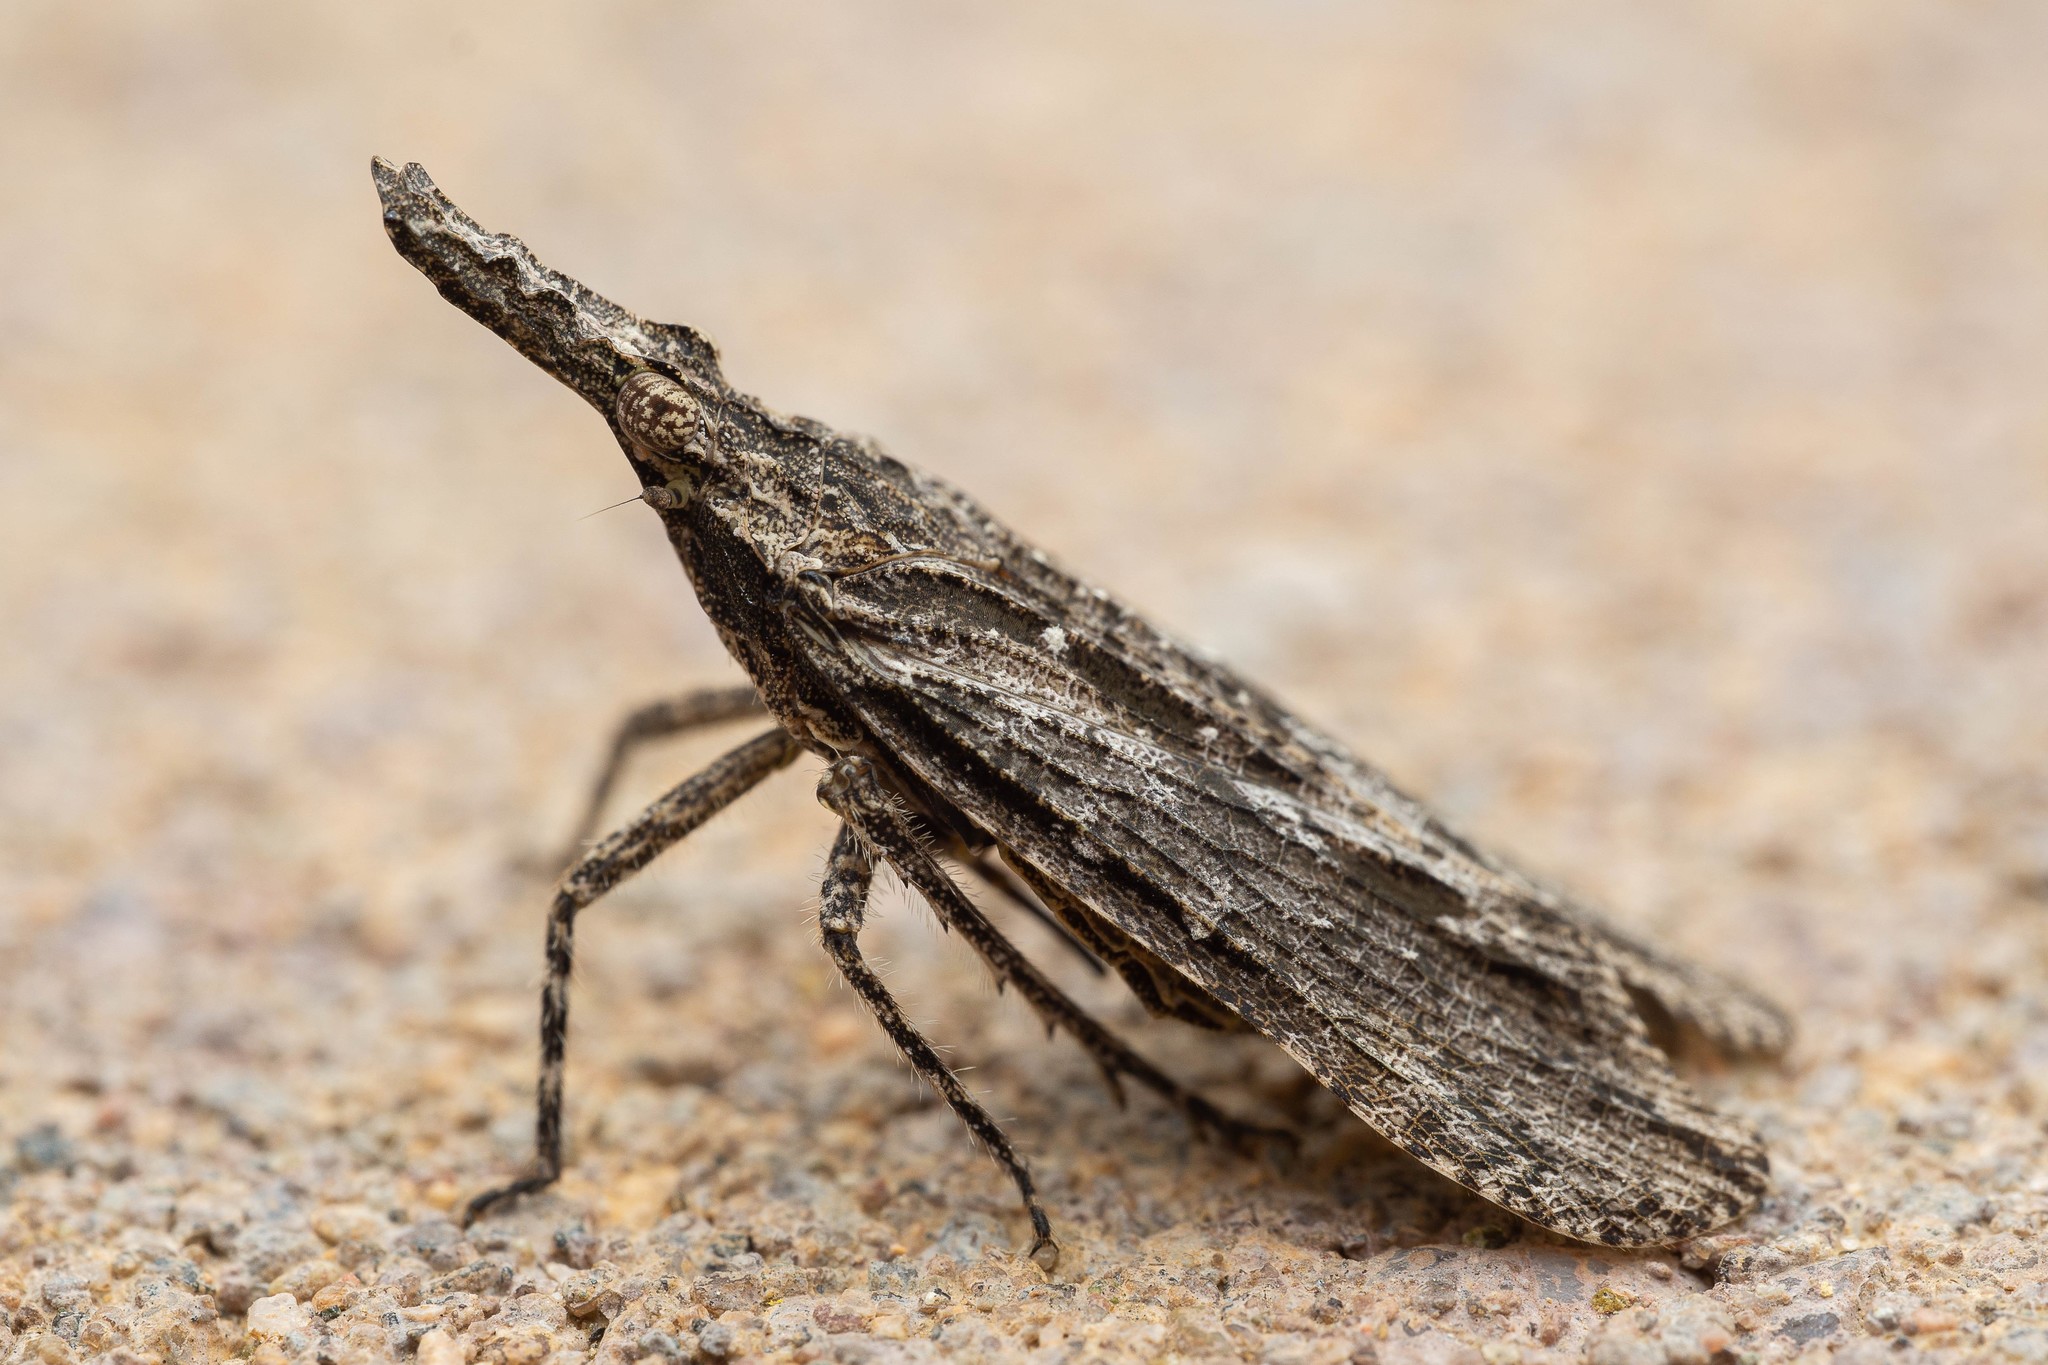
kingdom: Animalia
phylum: Arthropoda
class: Insecta
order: Hemiptera
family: Fulgoridae
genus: Scolopsella
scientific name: Scolopsella reticulata
